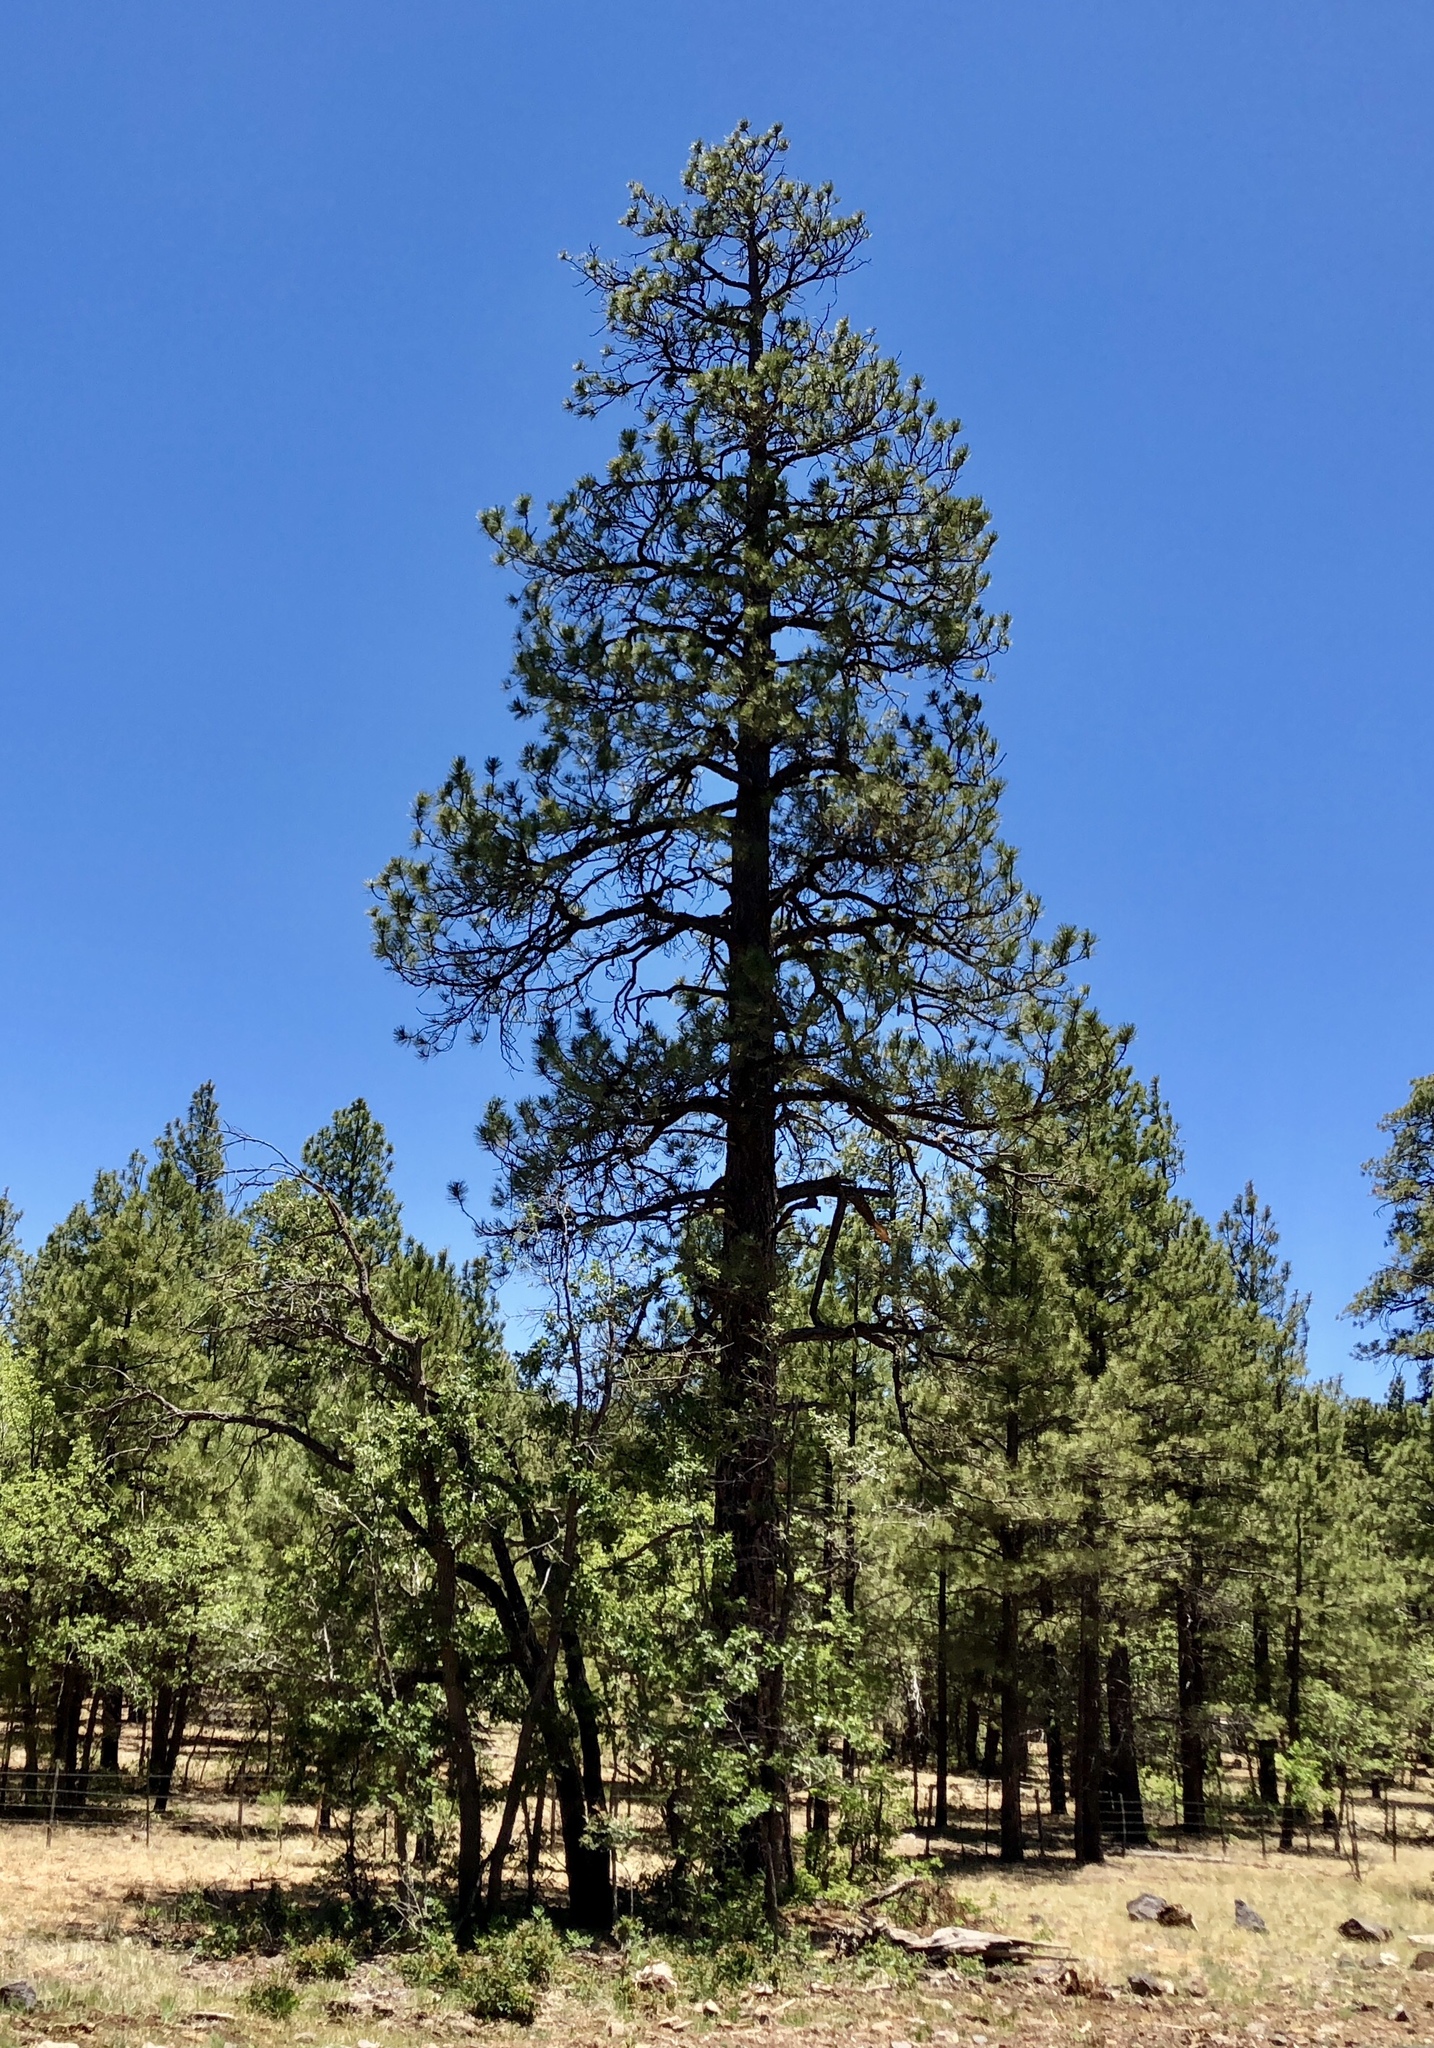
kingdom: Plantae
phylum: Tracheophyta
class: Pinopsida
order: Pinales
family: Pinaceae
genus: Pinus
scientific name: Pinus ponderosa
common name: Western yellow-pine
